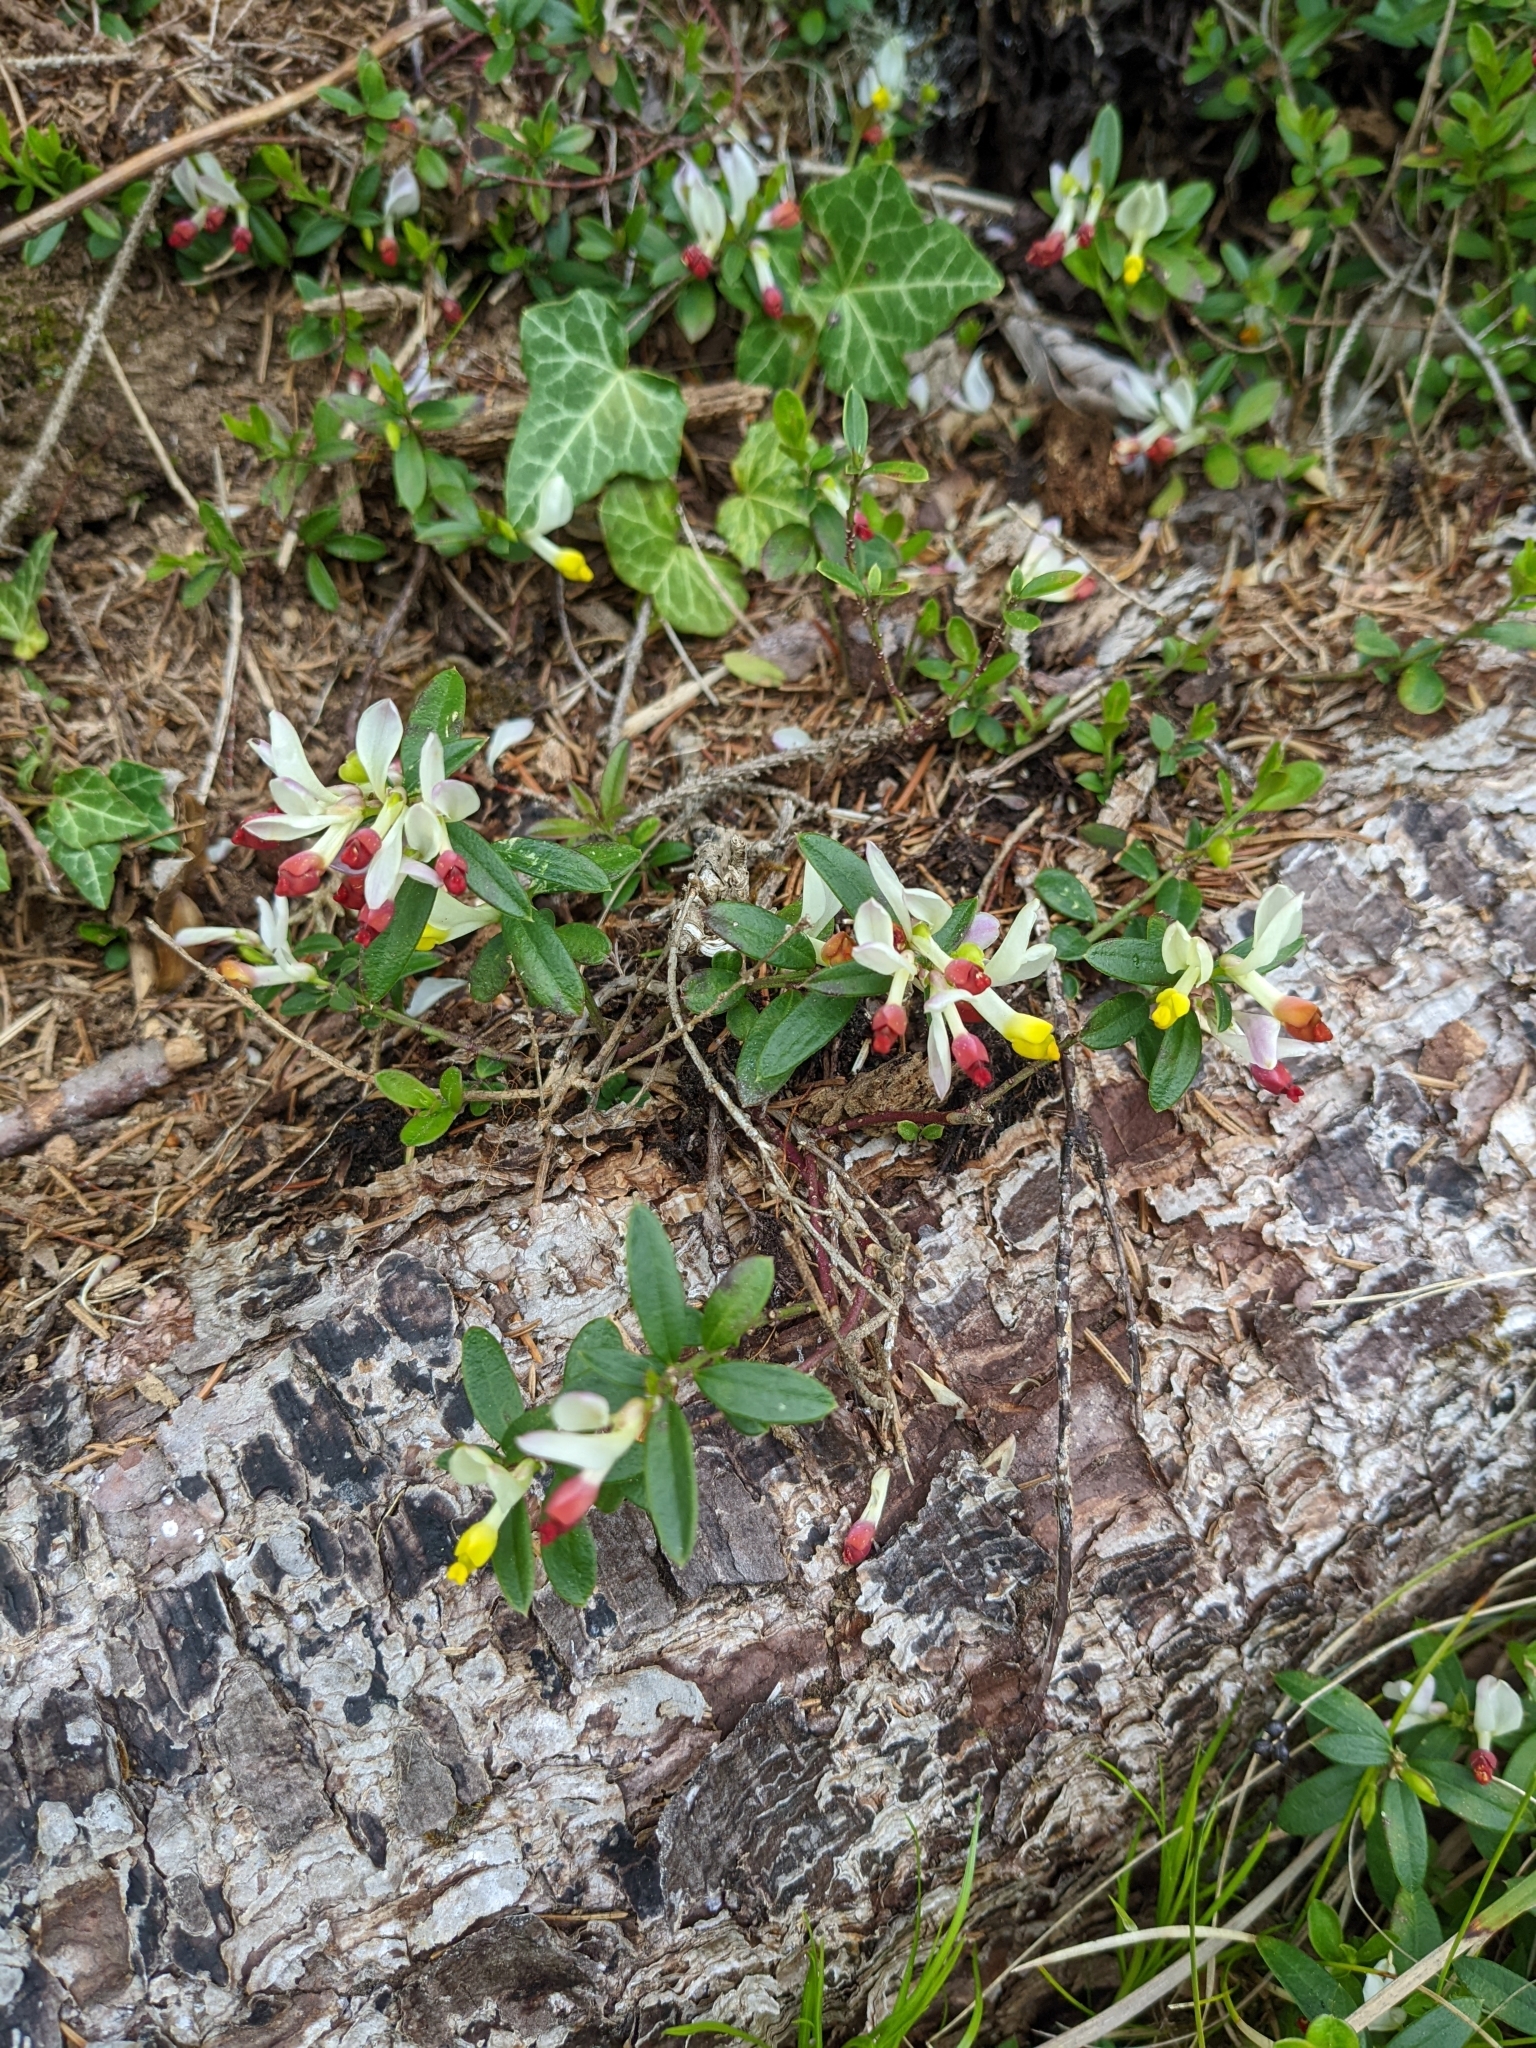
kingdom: Plantae
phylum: Tracheophyta
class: Magnoliopsida
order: Fabales
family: Polygalaceae
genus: Polygaloides
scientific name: Polygaloides chamaebuxus
